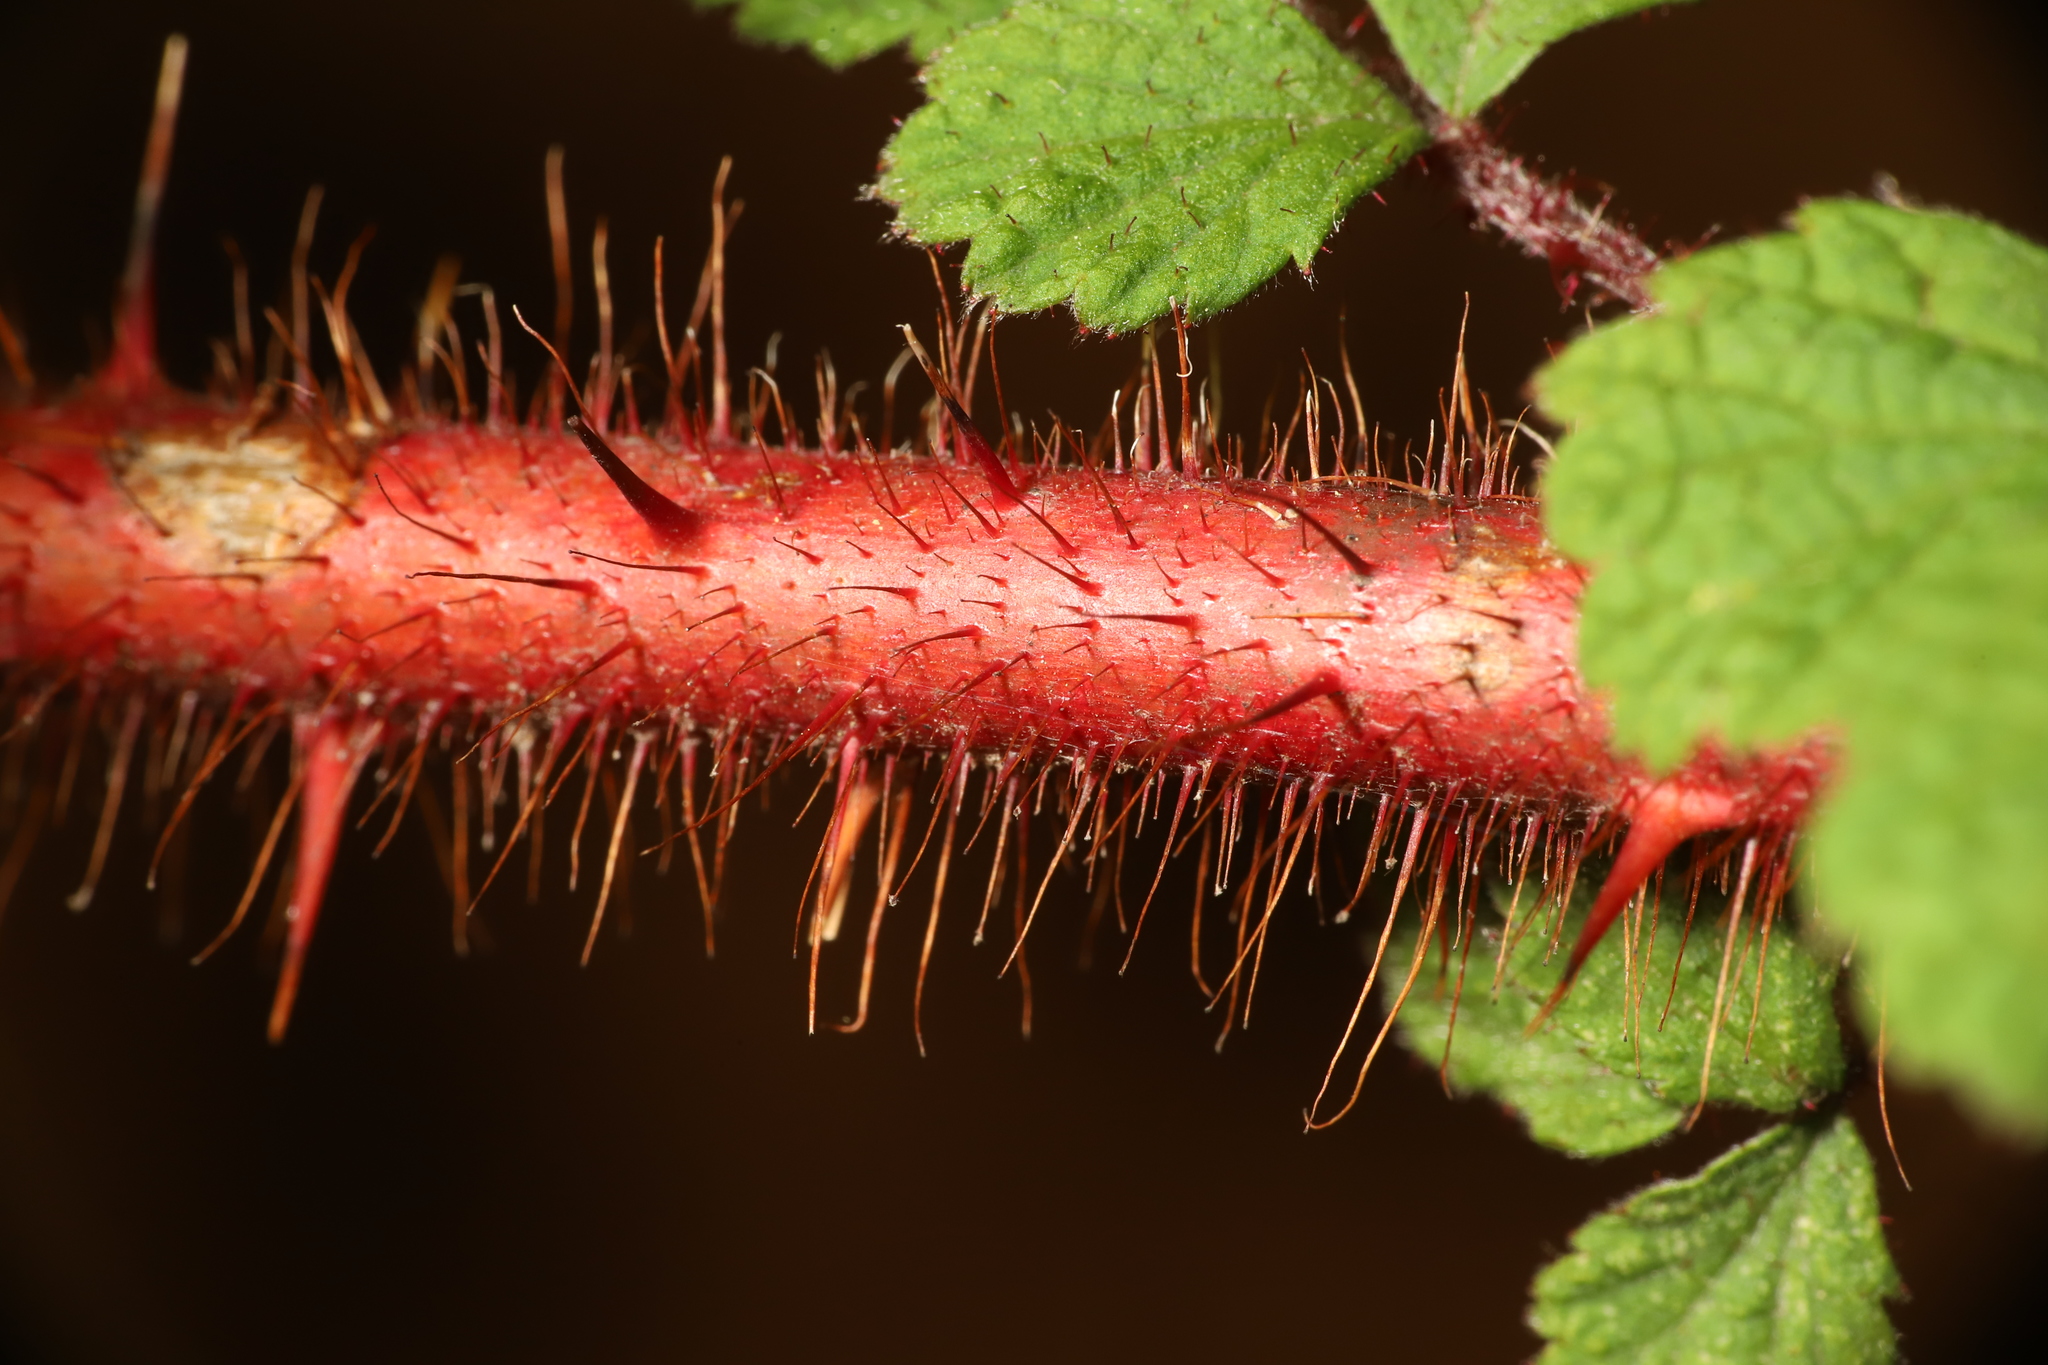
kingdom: Plantae
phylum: Tracheophyta
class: Magnoliopsida
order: Rosales
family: Rosaceae
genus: Rubus
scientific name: Rubus phoenicolasius
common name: Japanese wineberry
